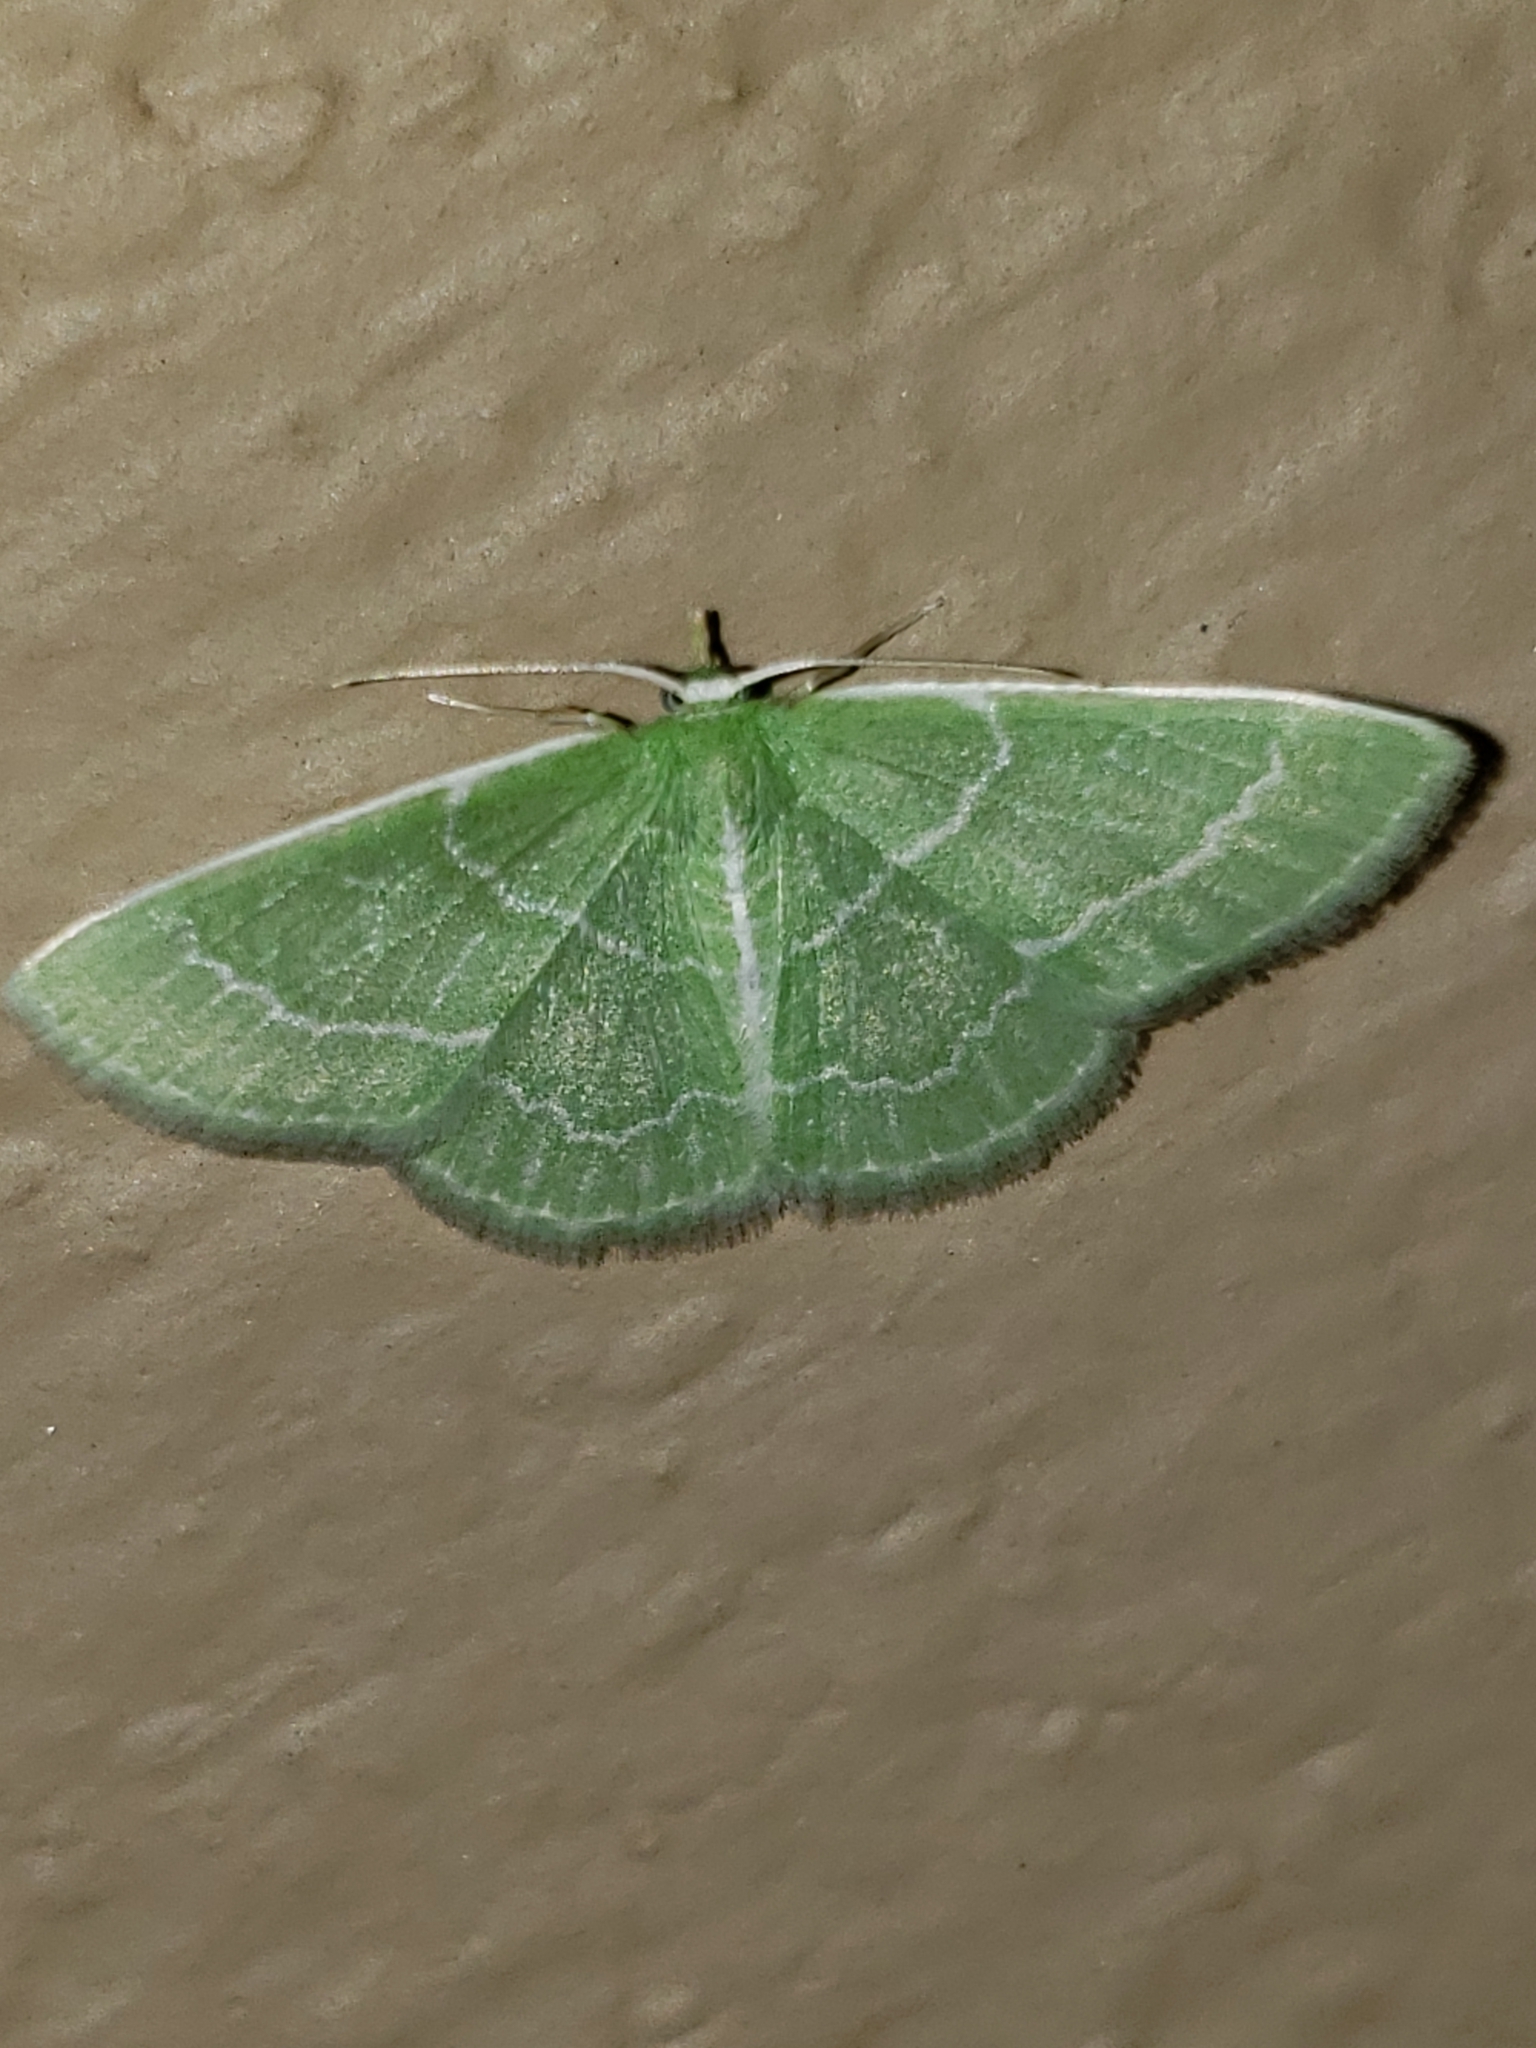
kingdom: Animalia
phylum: Arthropoda
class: Insecta
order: Lepidoptera
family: Geometridae
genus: Synchlora
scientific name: Synchlora aerata
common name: Wavy-lined emerald
